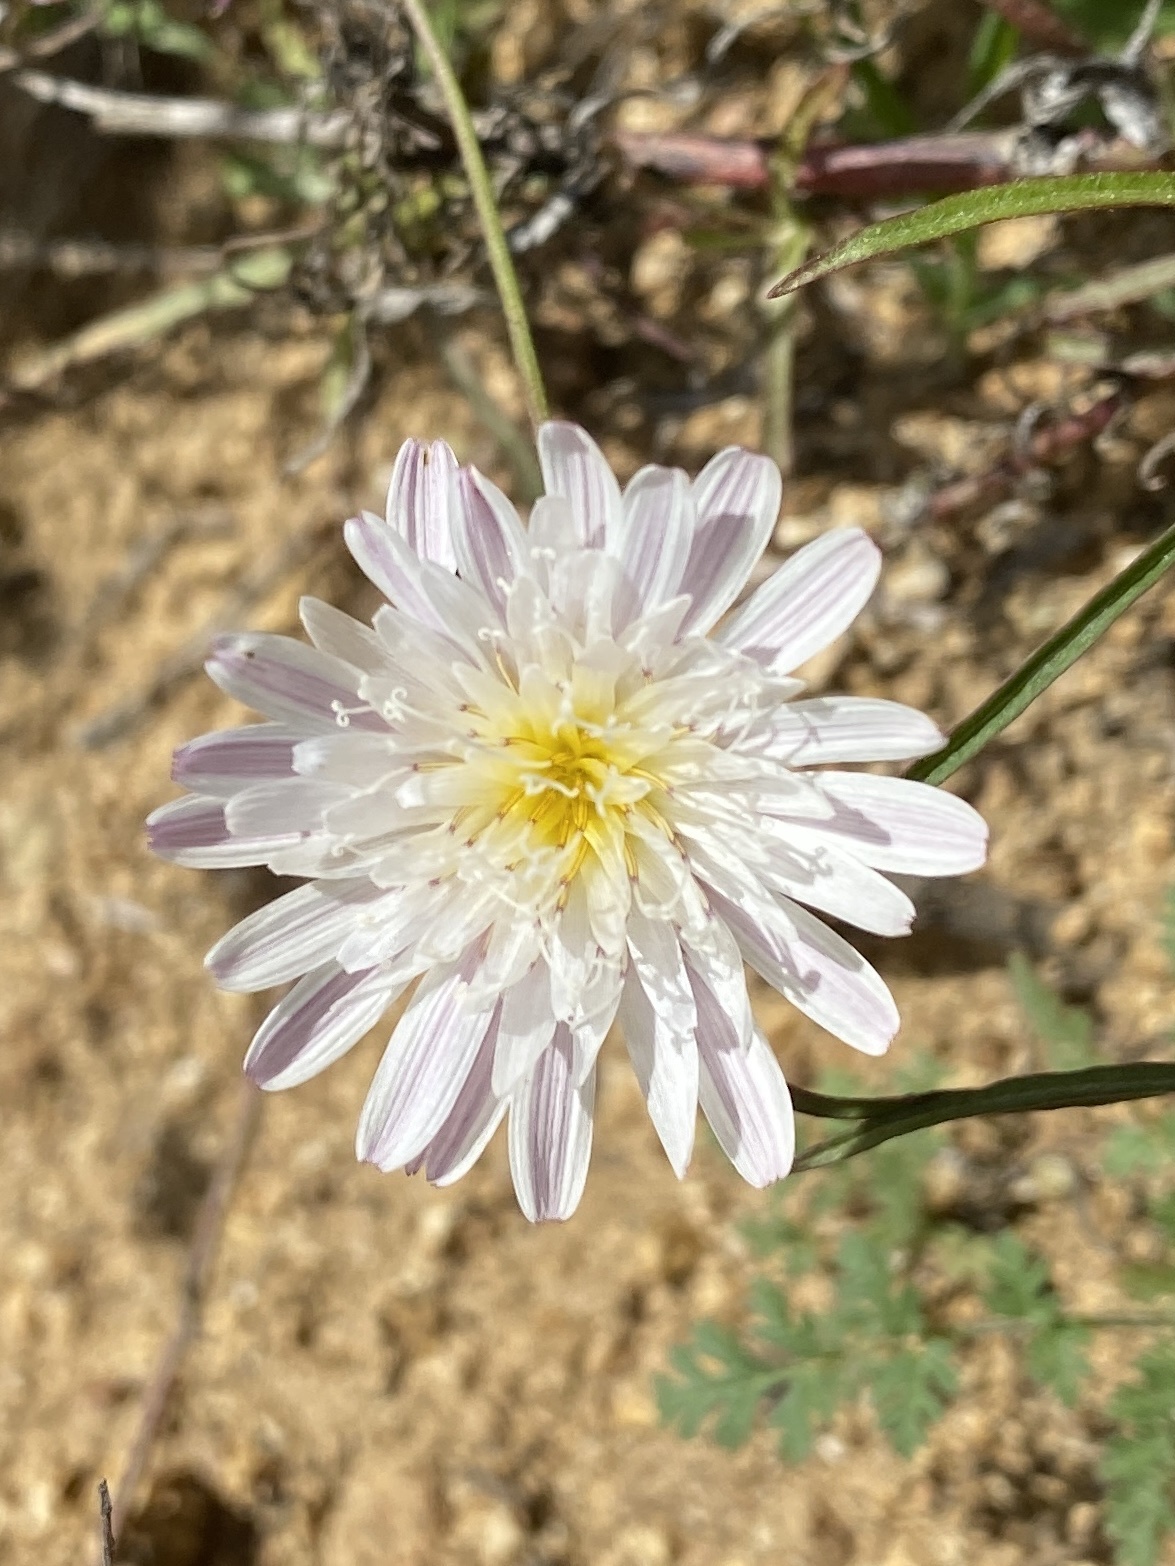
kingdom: Plantae
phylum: Tracheophyta
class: Magnoliopsida
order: Asterales
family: Asteraceae
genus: Malacothrix
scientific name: Malacothrix saxatilis
